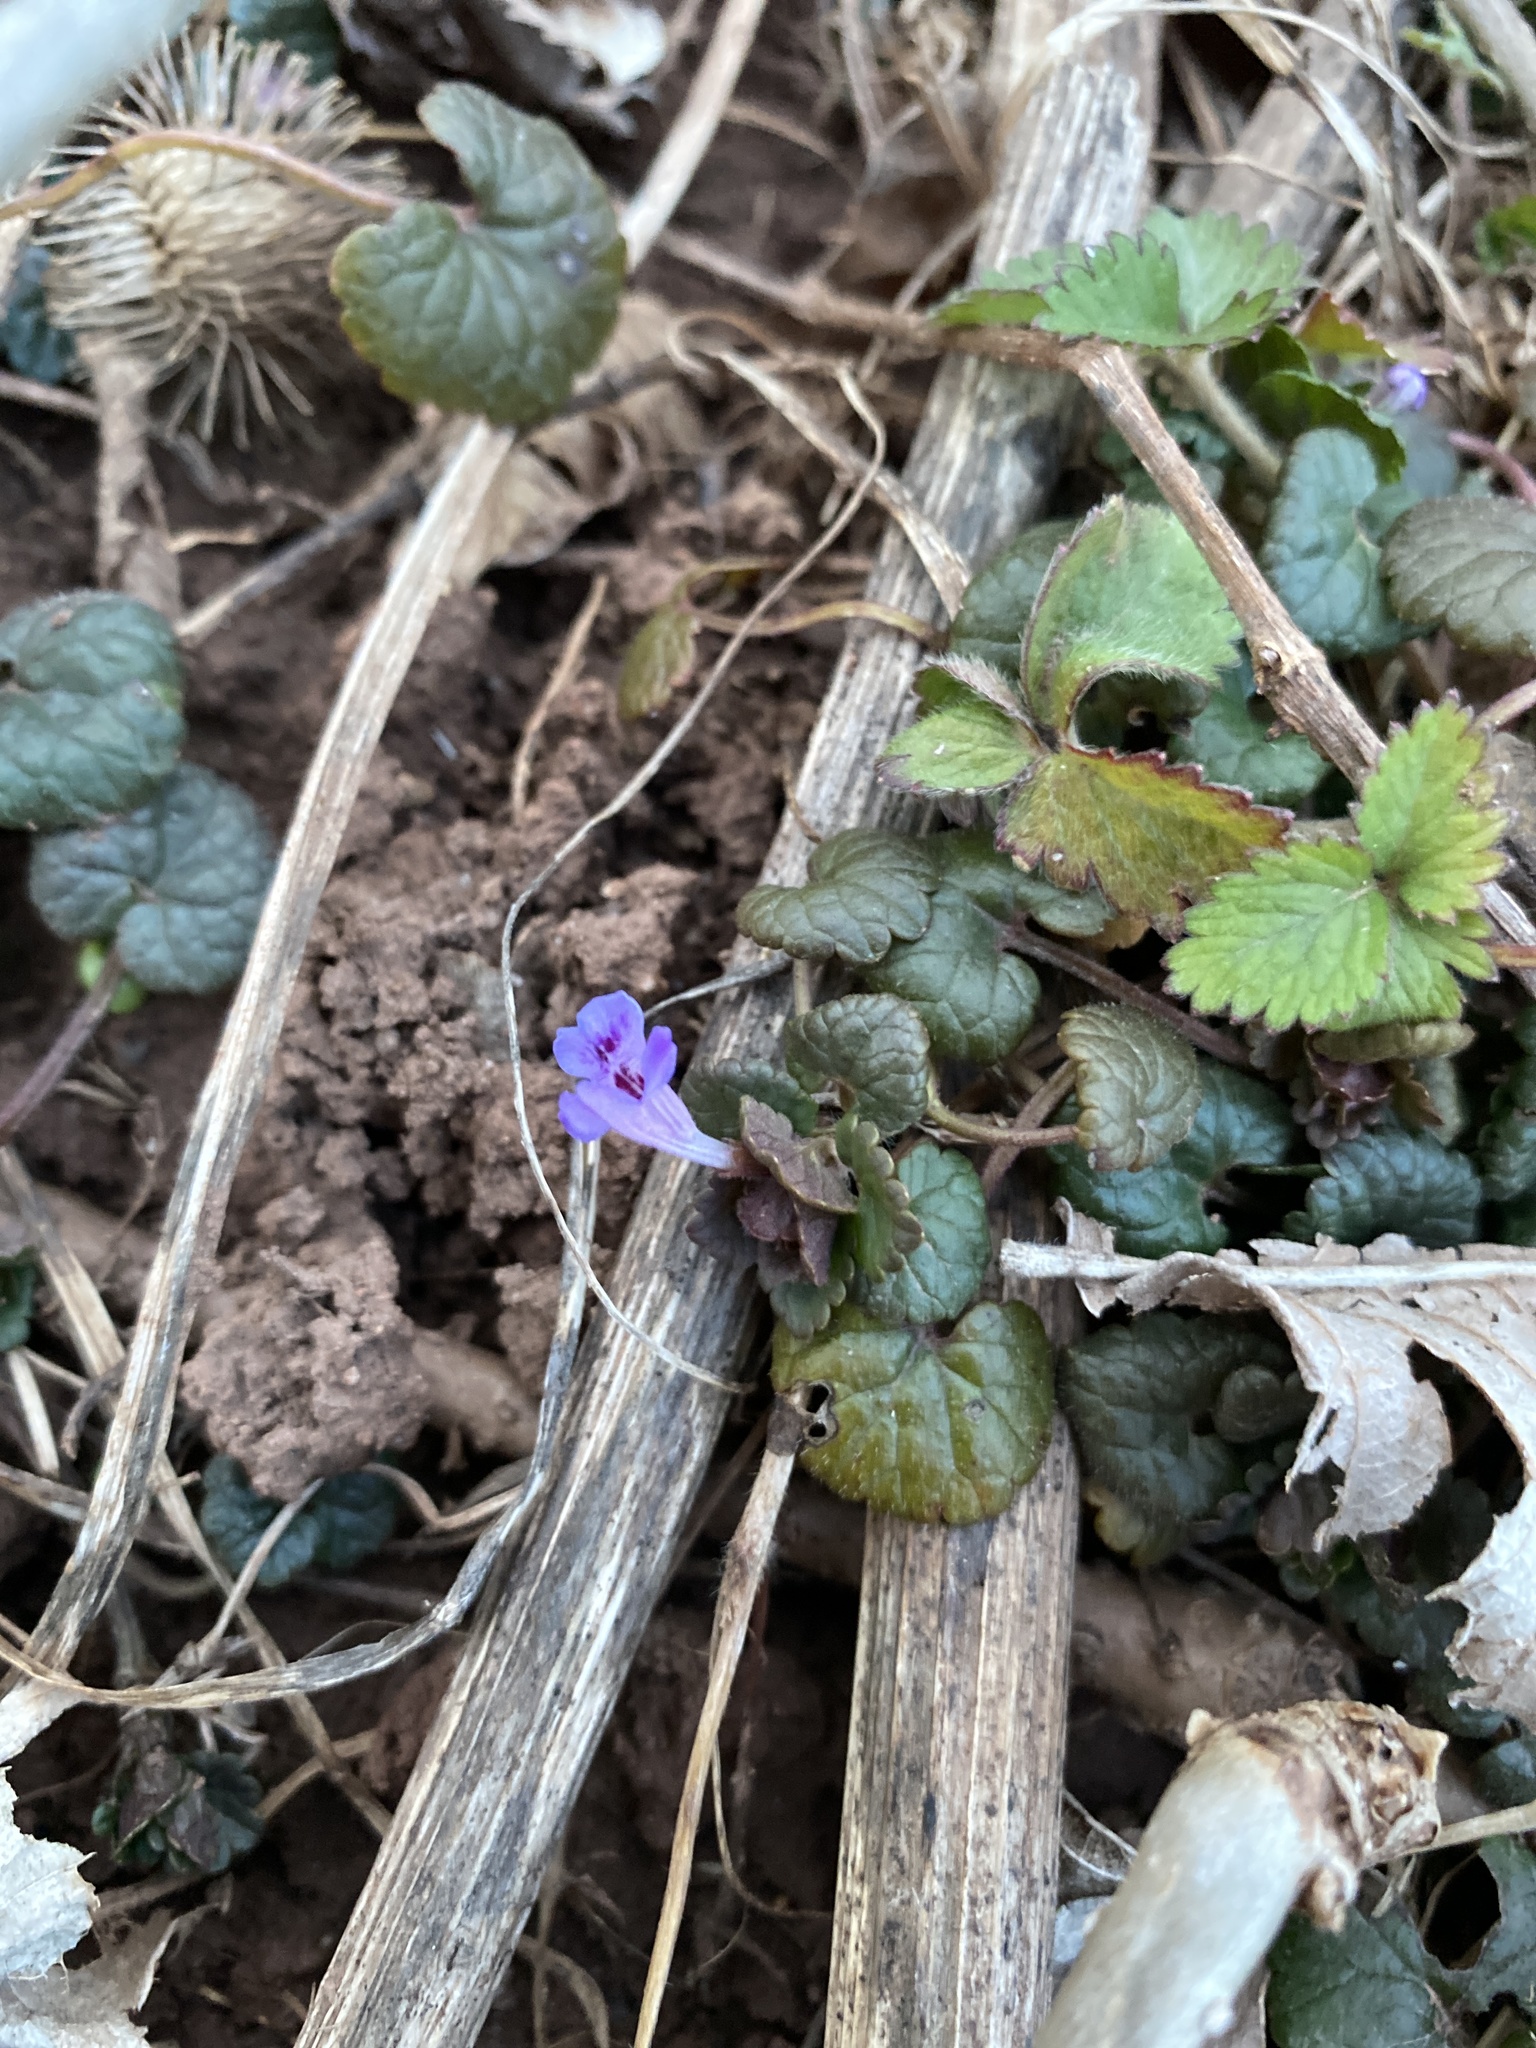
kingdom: Plantae
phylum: Tracheophyta
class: Magnoliopsida
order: Lamiales
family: Lamiaceae
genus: Glechoma
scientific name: Glechoma hederacea
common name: Ground ivy
